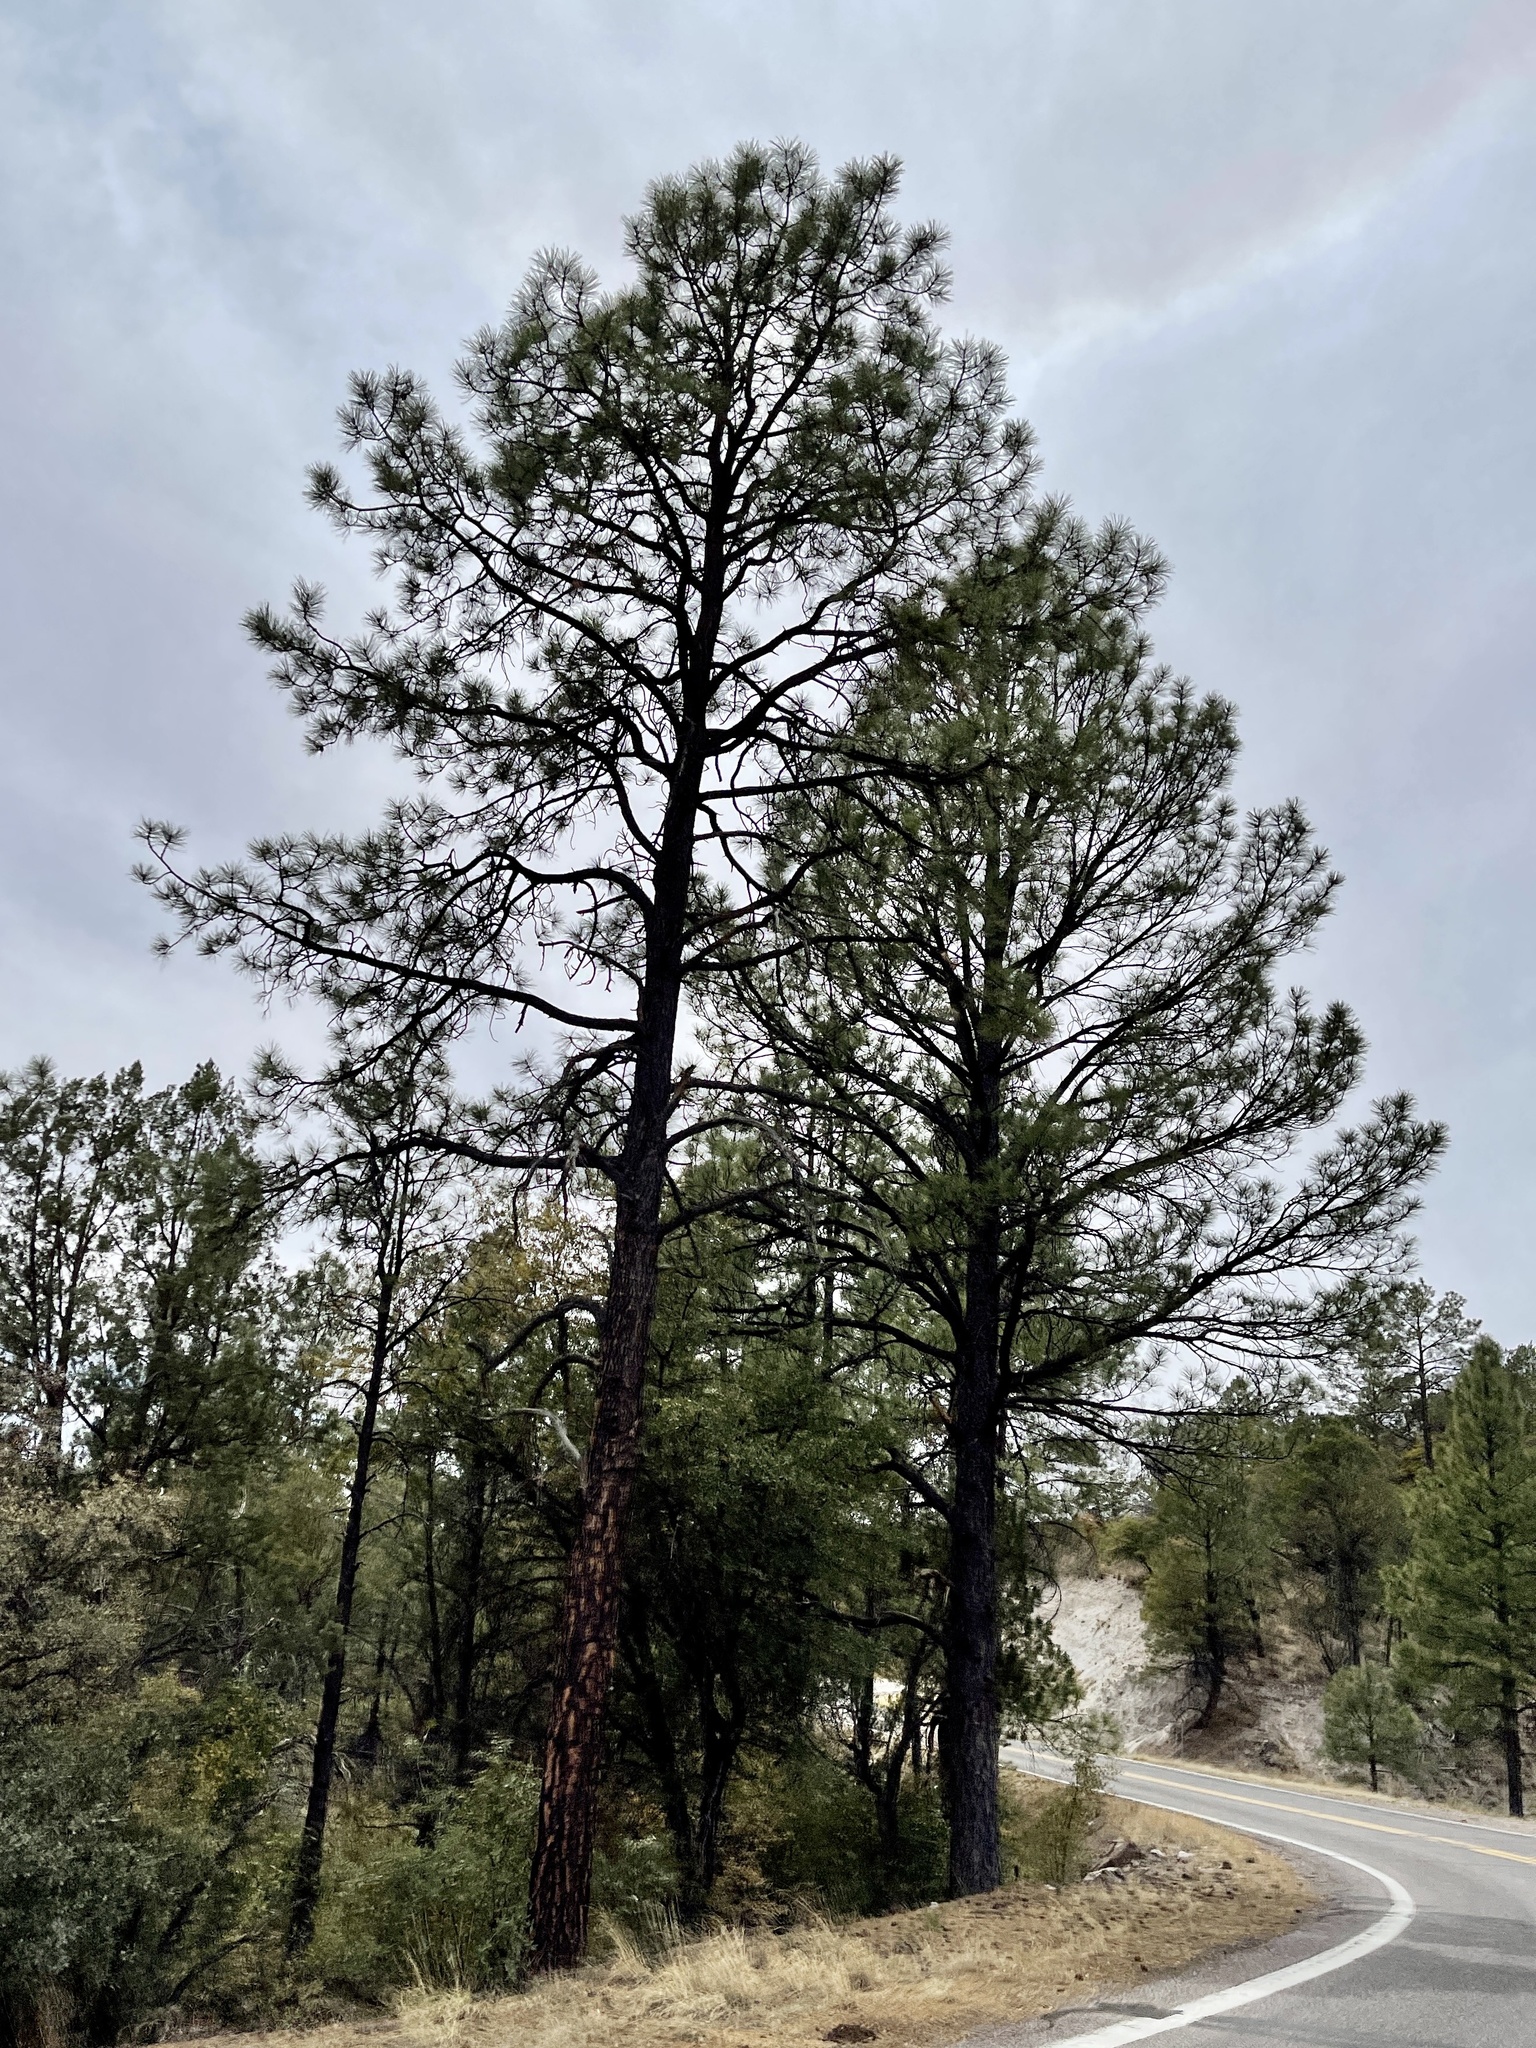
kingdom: Plantae
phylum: Tracheophyta
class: Pinopsida
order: Pinales
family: Pinaceae
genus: Pinus
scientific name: Pinus ponderosa
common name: Western yellow-pine
